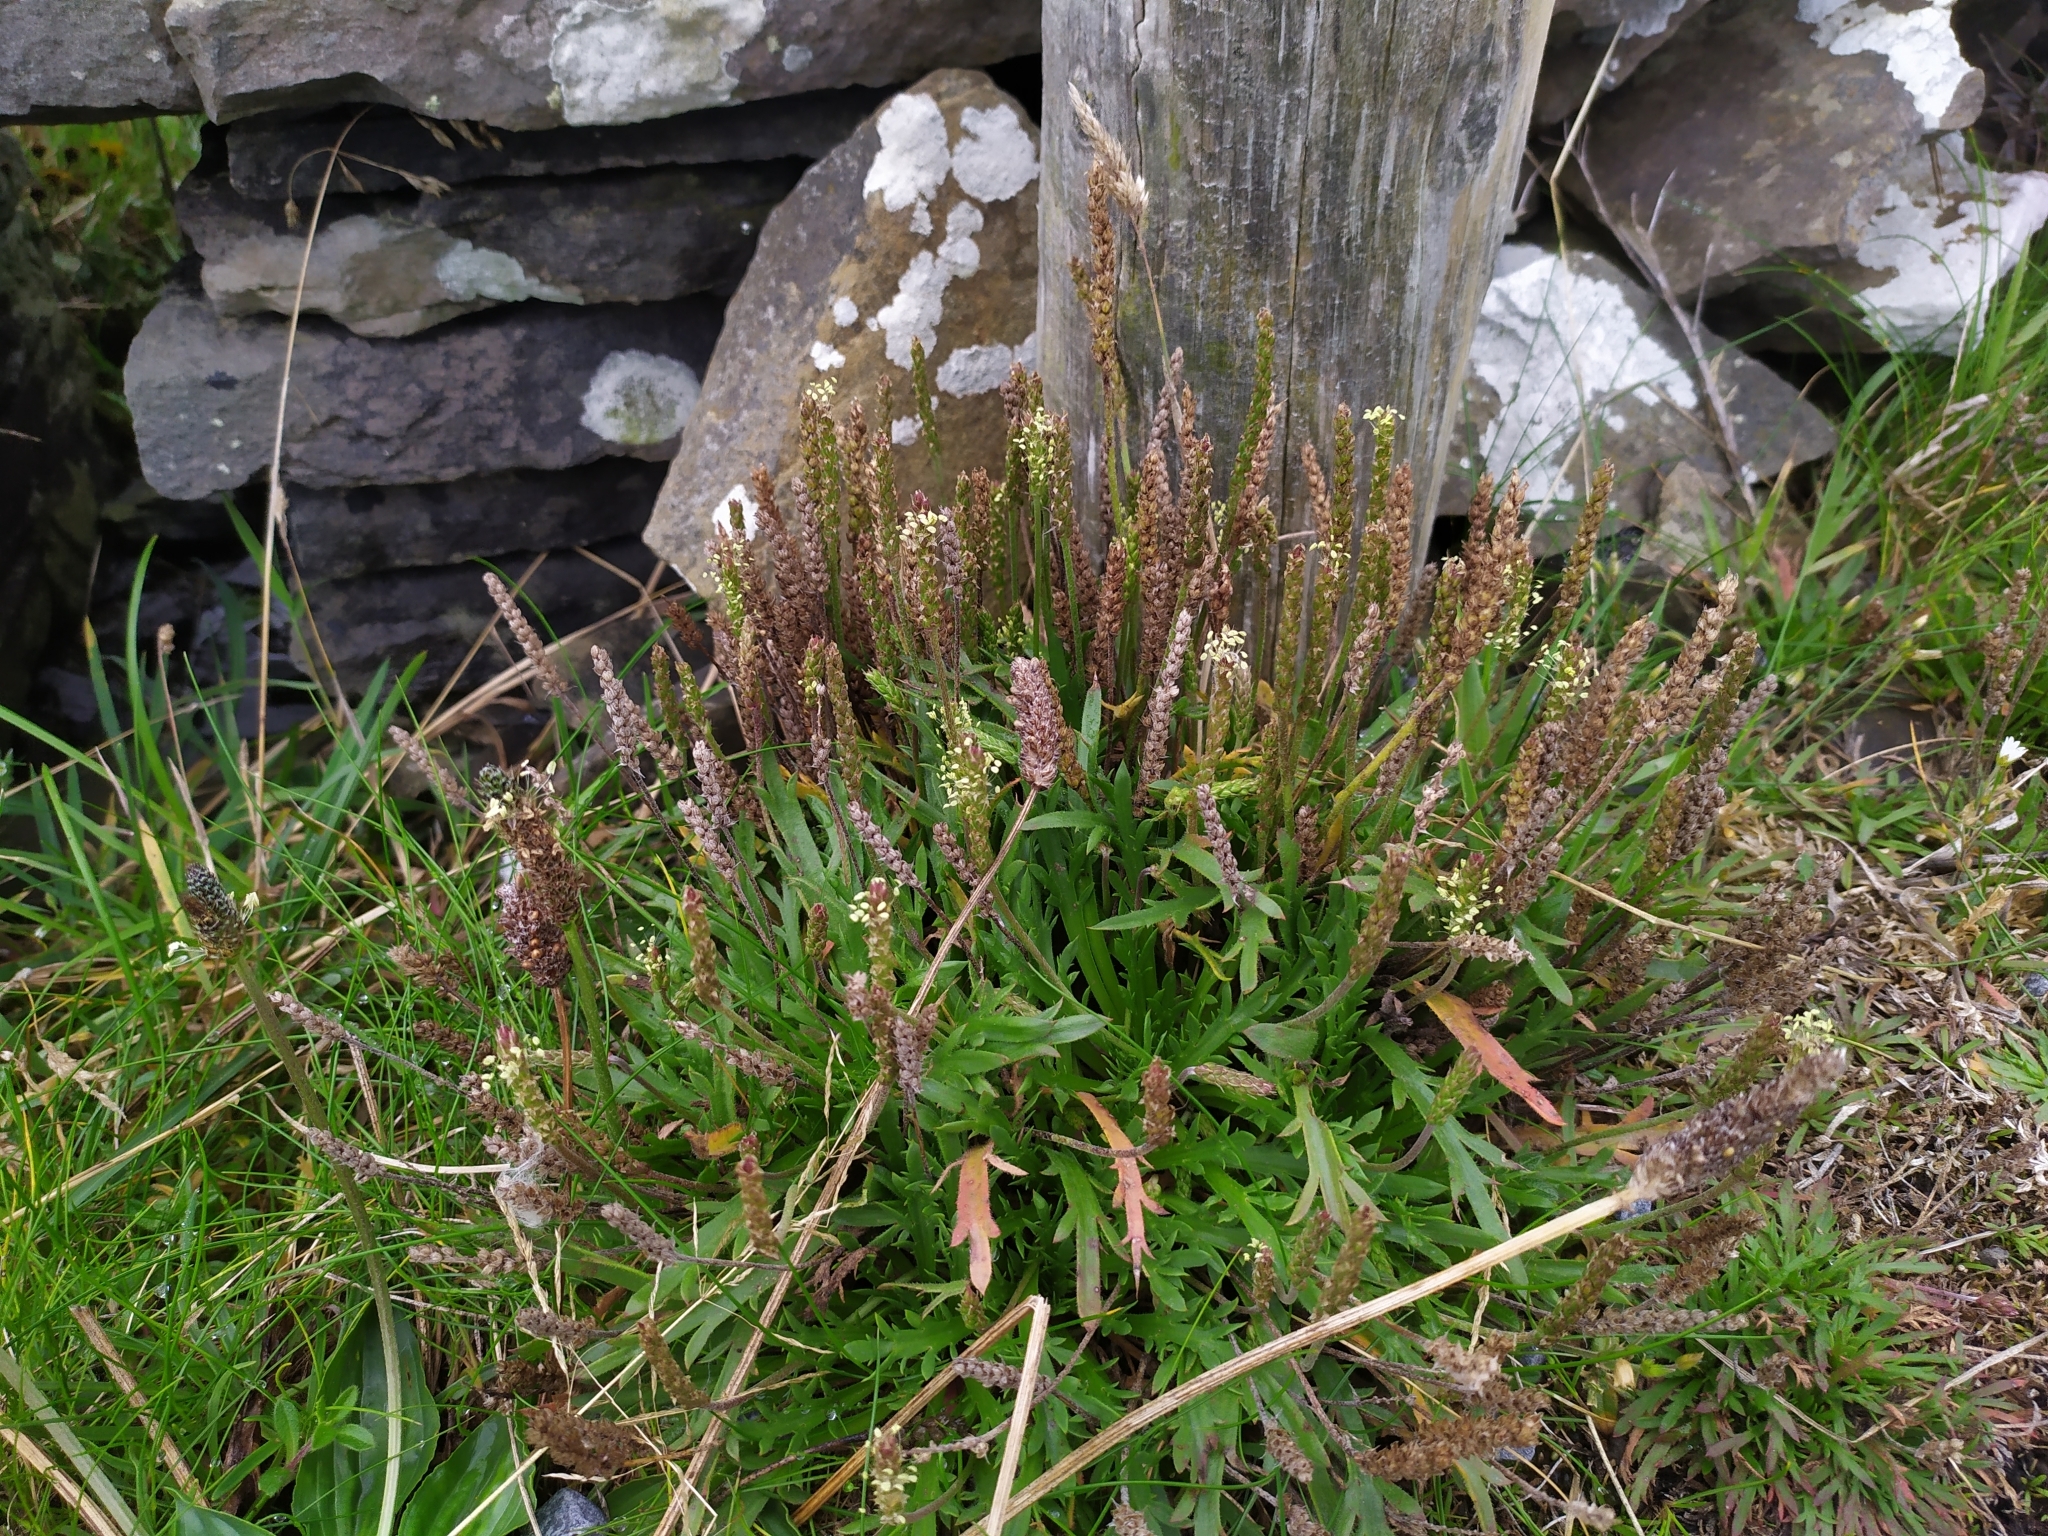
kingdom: Plantae
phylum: Tracheophyta
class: Magnoliopsida
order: Lamiales
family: Plantaginaceae
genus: Plantago
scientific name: Plantago coronopus
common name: Buck's-horn plantain
